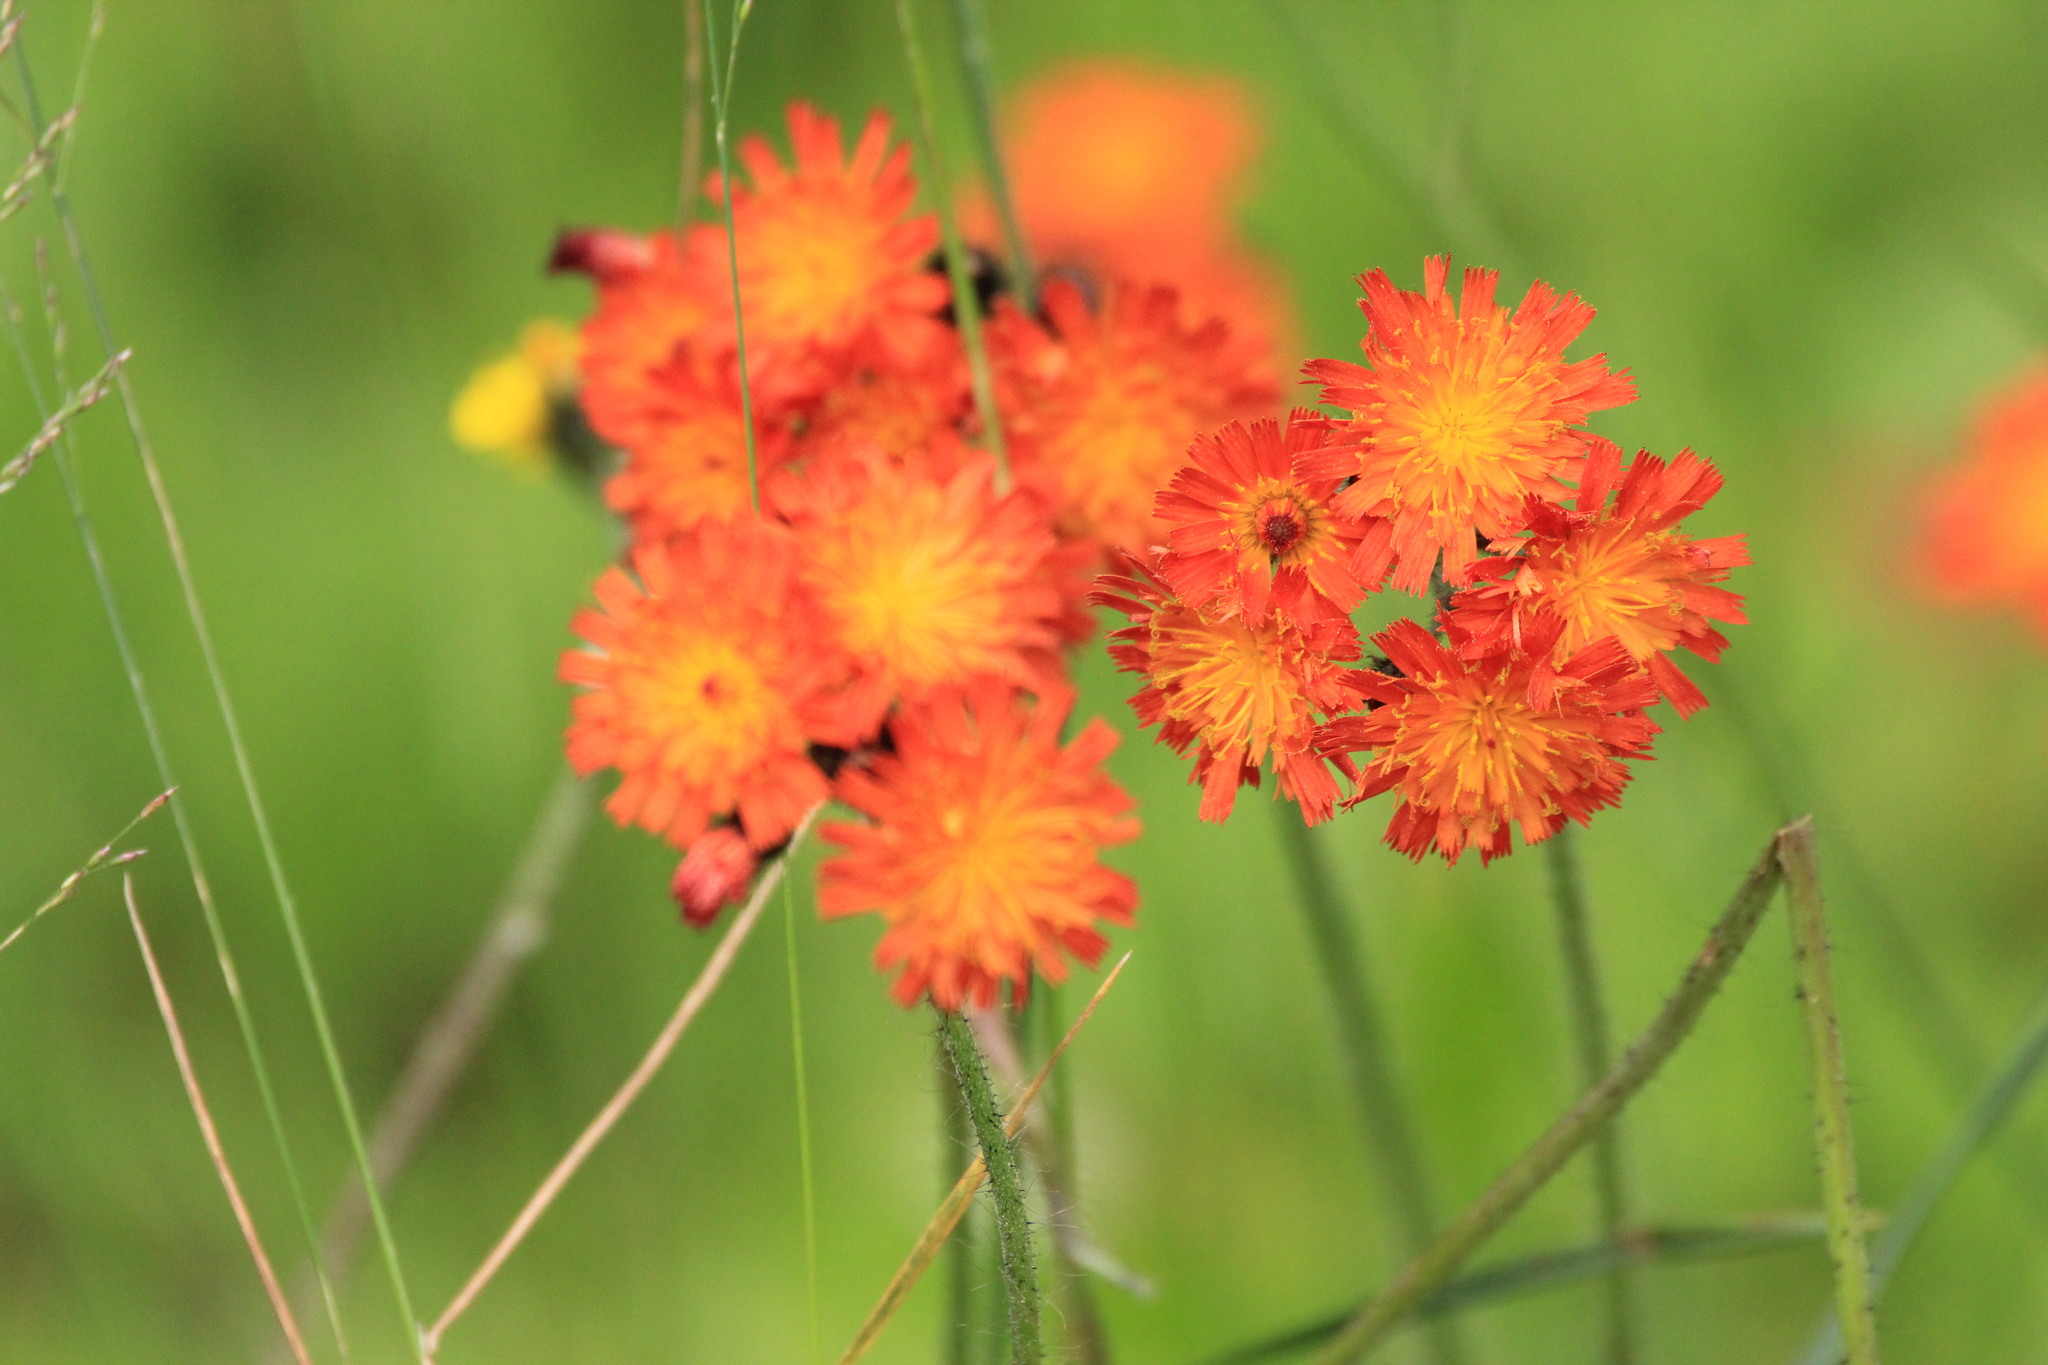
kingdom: Plantae
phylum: Tracheophyta
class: Magnoliopsida
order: Asterales
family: Asteraceae
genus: Pilosella
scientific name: Pilosella aurantiaca
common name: Fox-and-cubs
